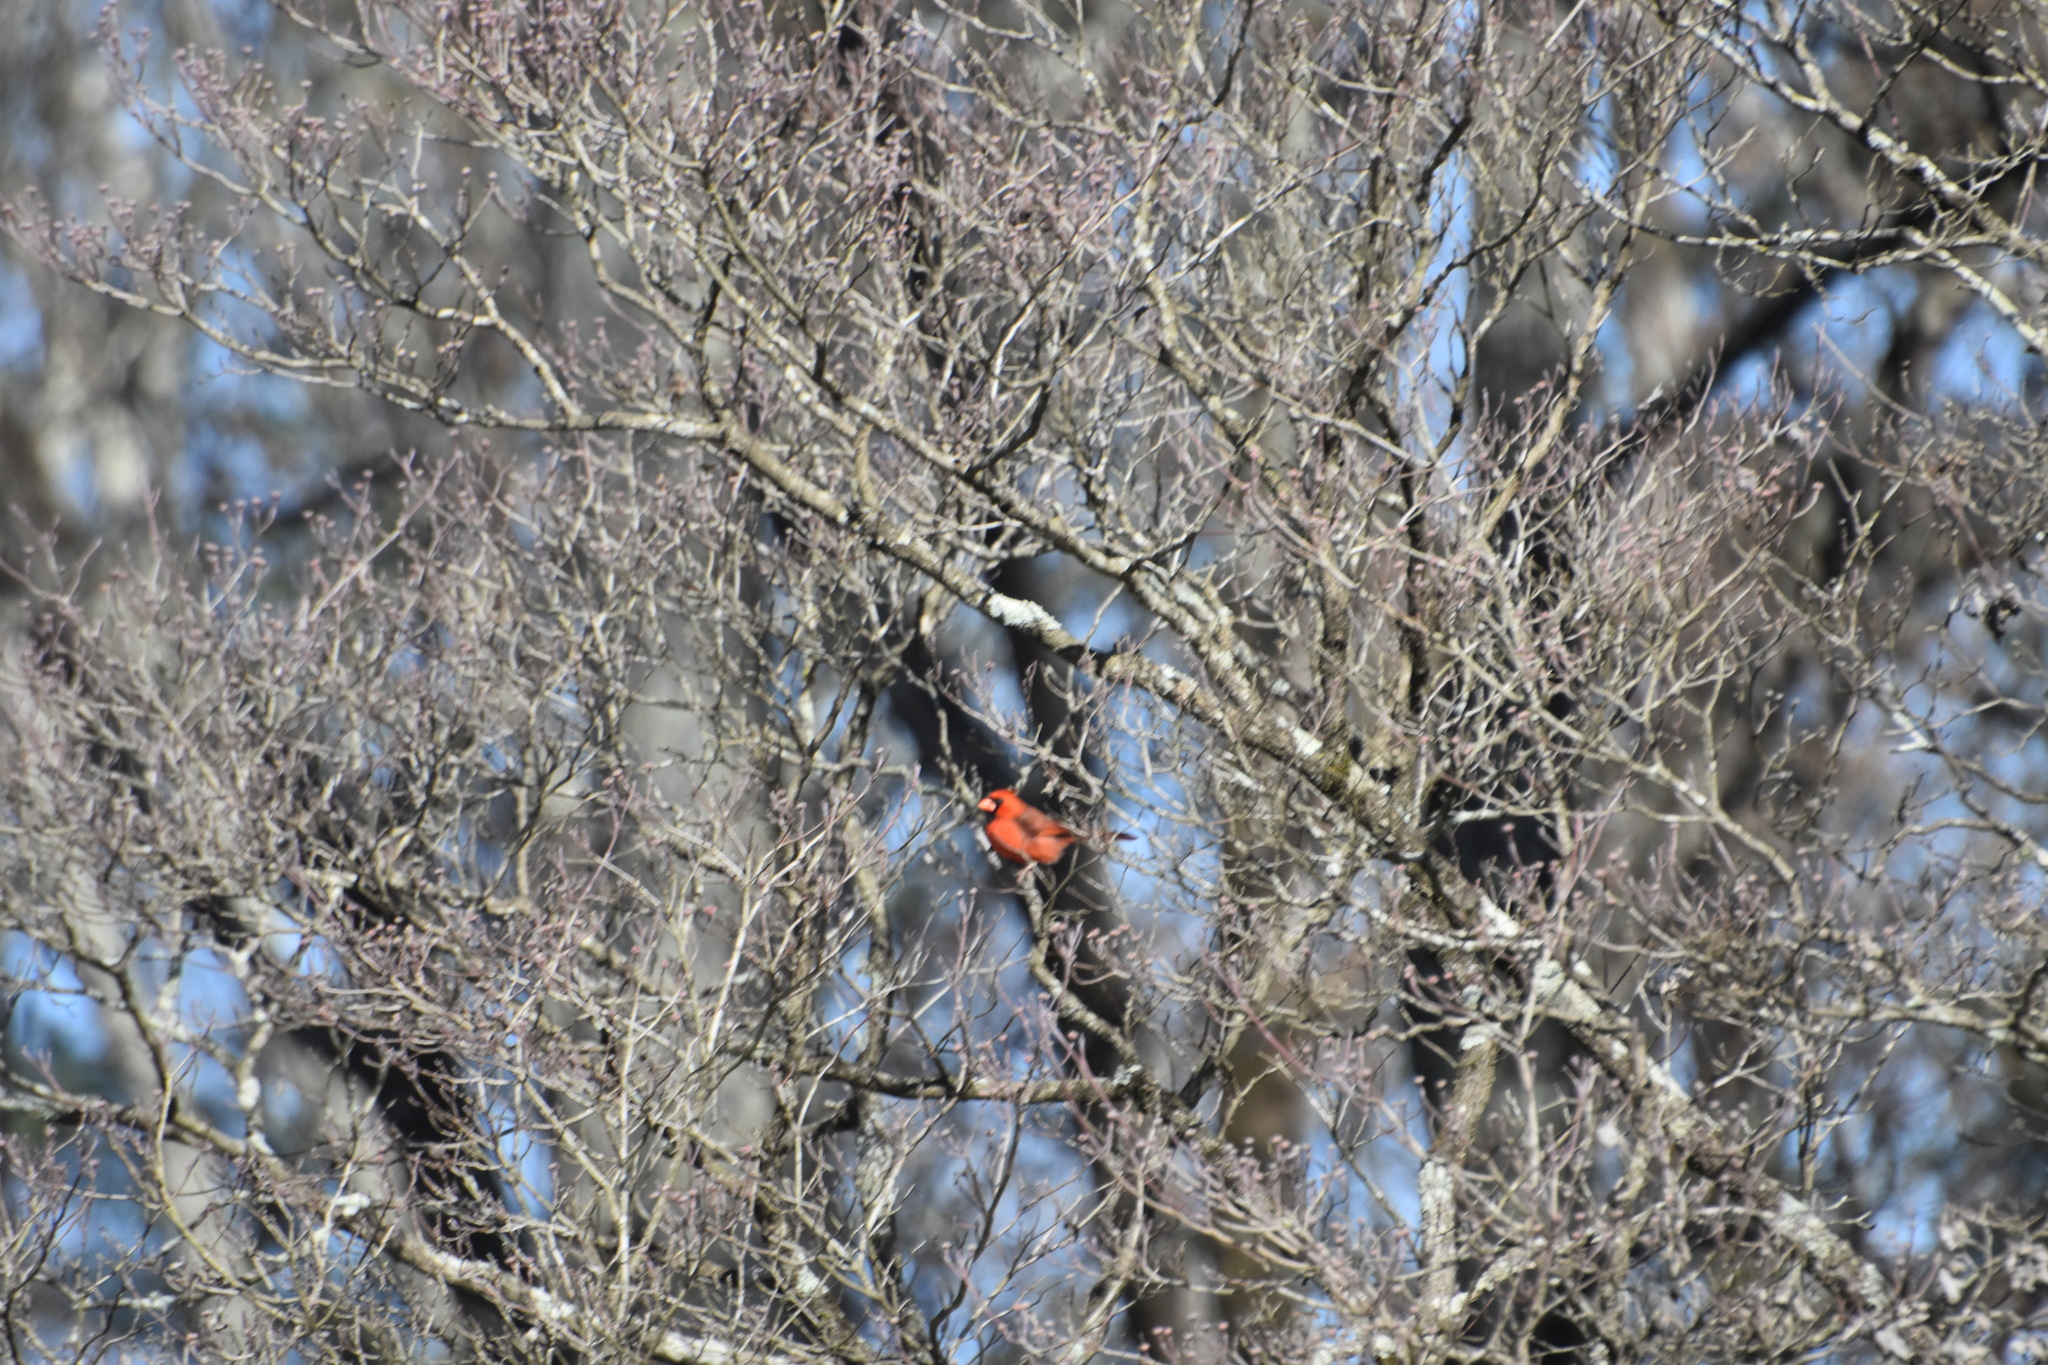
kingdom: Animalia
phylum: Chordata
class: Aves
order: Passeriformes
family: Cardinalidae
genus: Cardinalis
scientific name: Cardinalis cardinalis
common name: Northern cardinal
